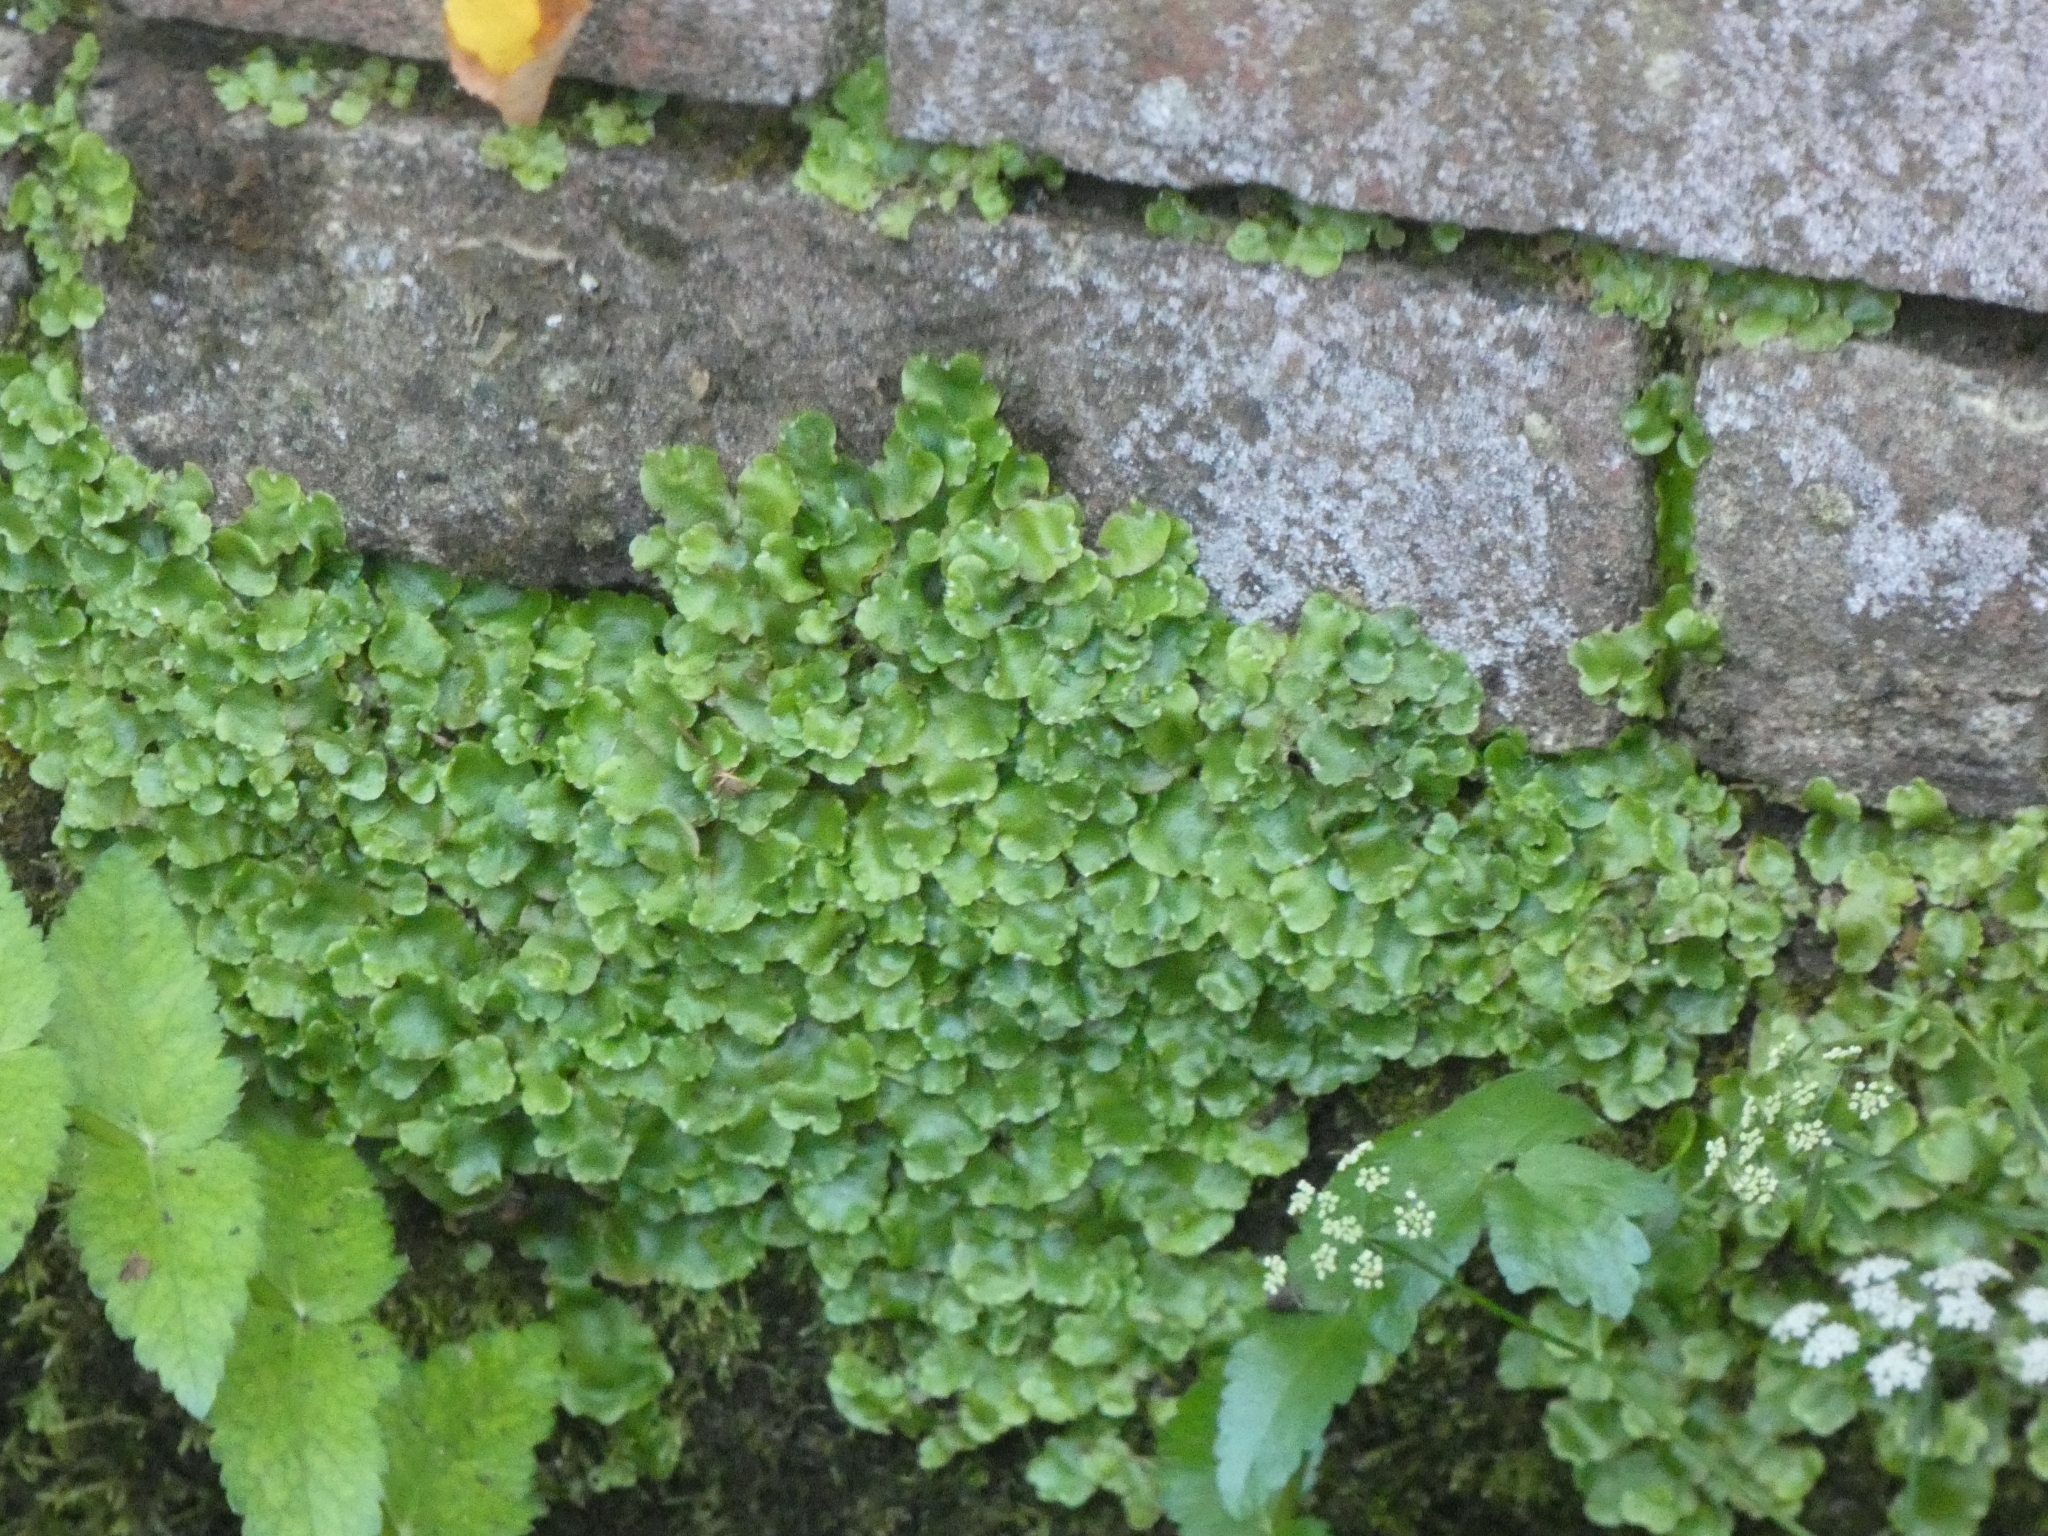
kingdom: Plantae
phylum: Marchantiophyta
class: Marchantiopsida
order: Lunulariales
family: Lunulariaceae
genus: Lunularia
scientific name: Lunularia cruciata
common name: Crescent-cup liverwort
